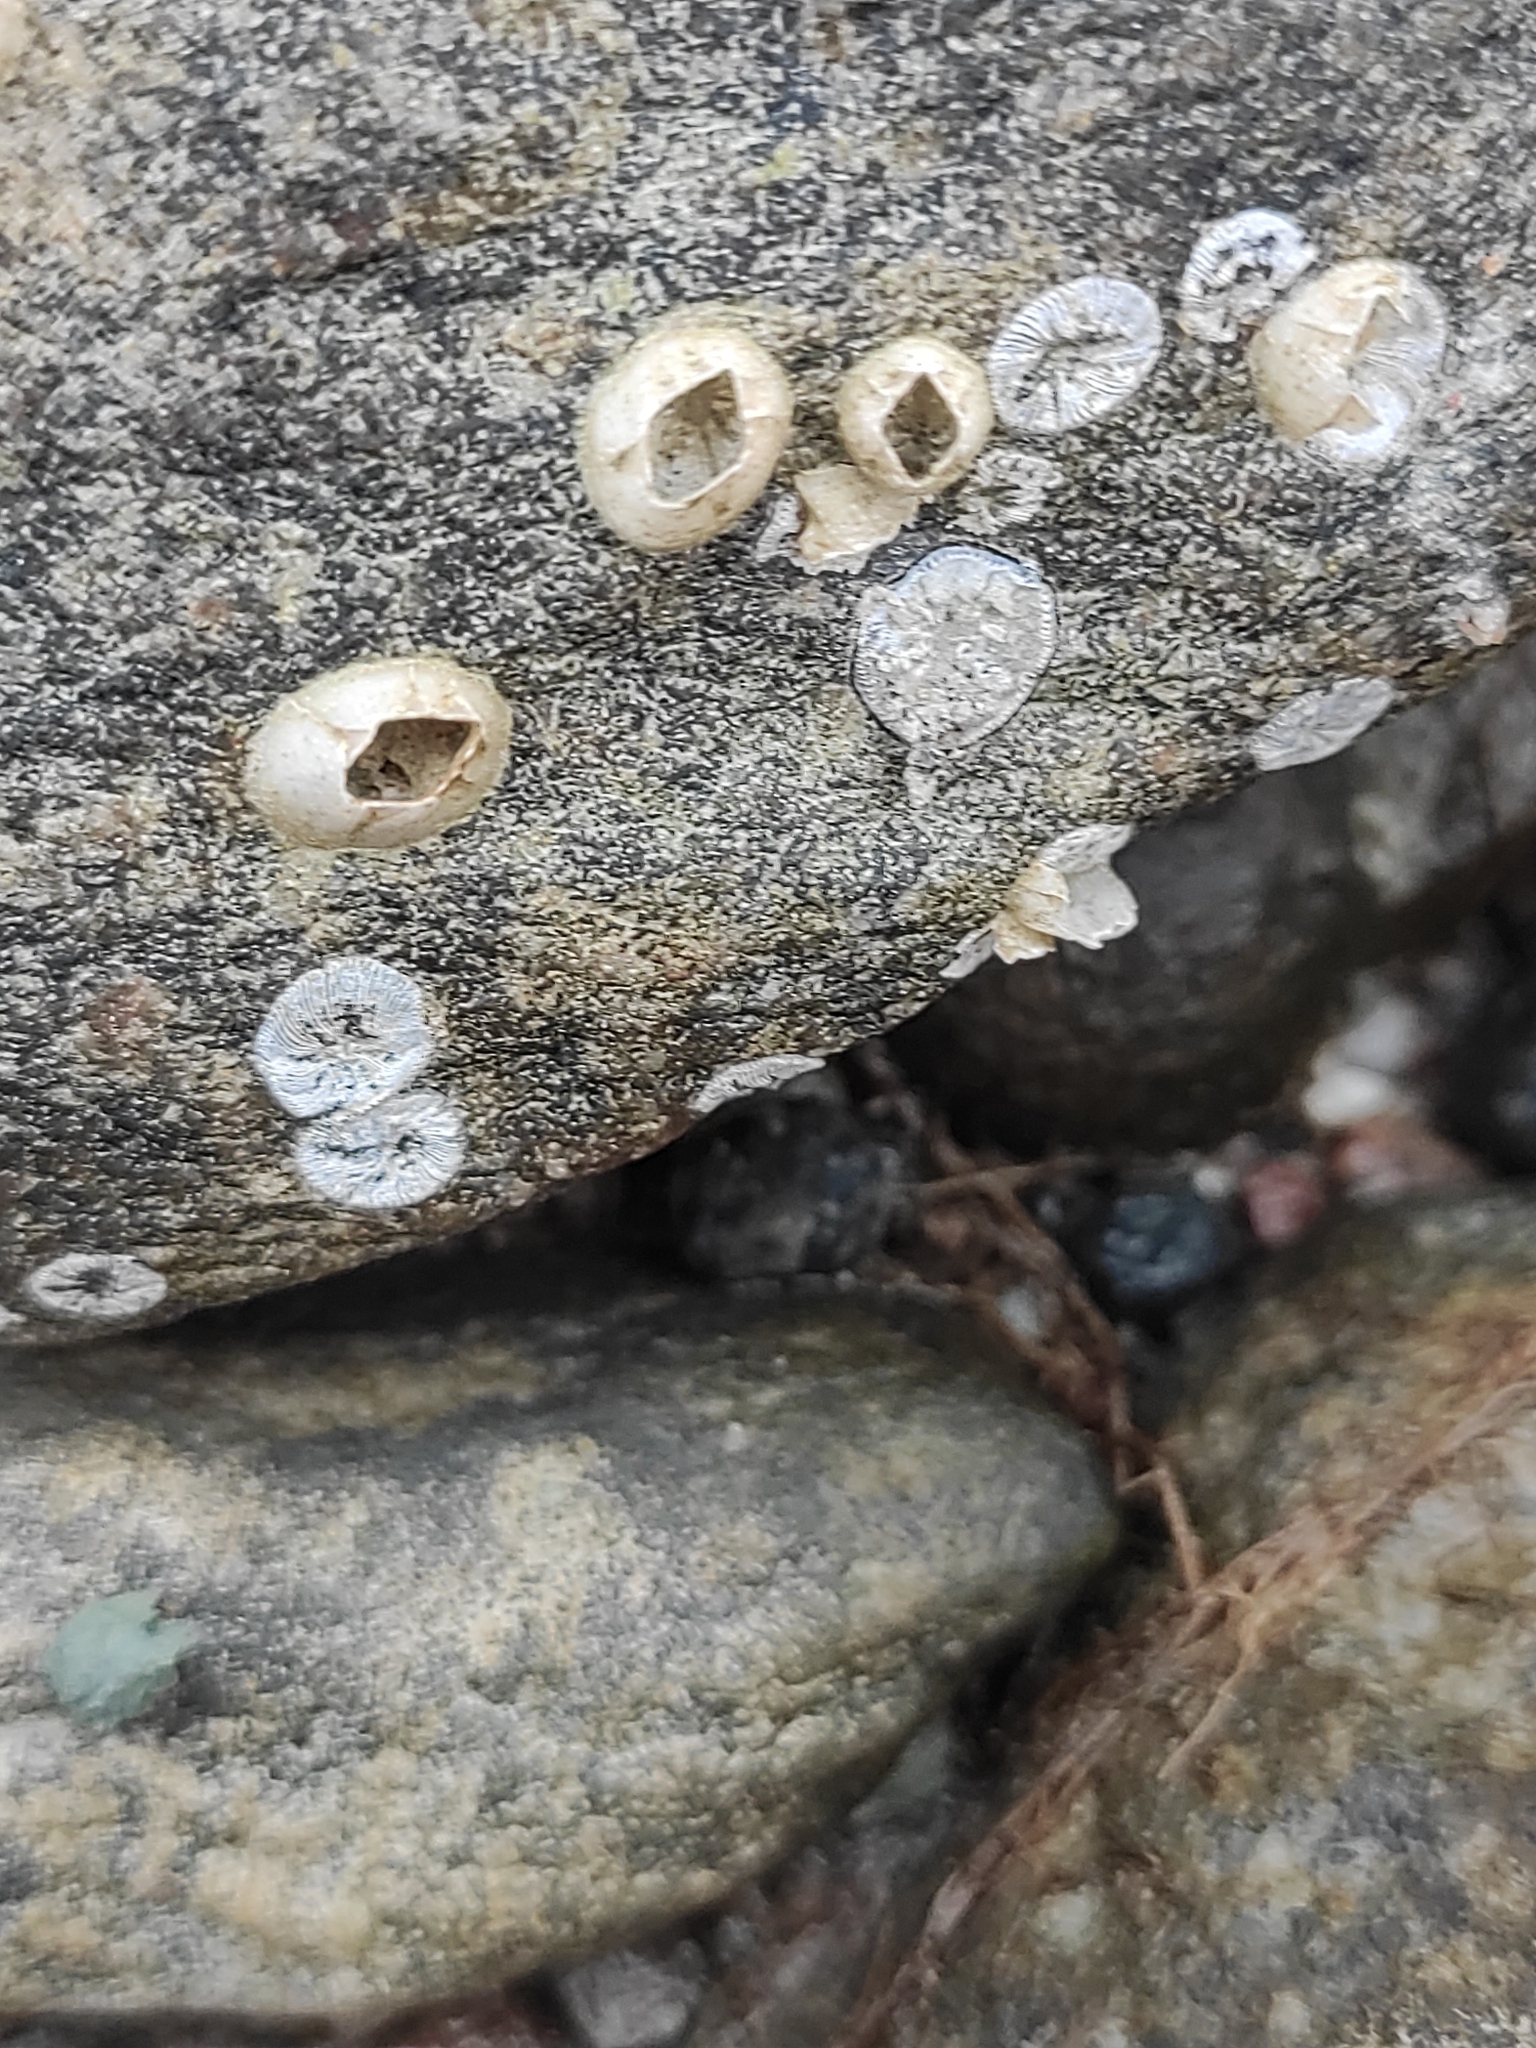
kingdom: Animalia
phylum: Arthropoda
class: Maxillopoda
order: Sessilia
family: Balanidae
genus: Amphibalanus
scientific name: Amphibalanus improvisus
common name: Bay barnacle
